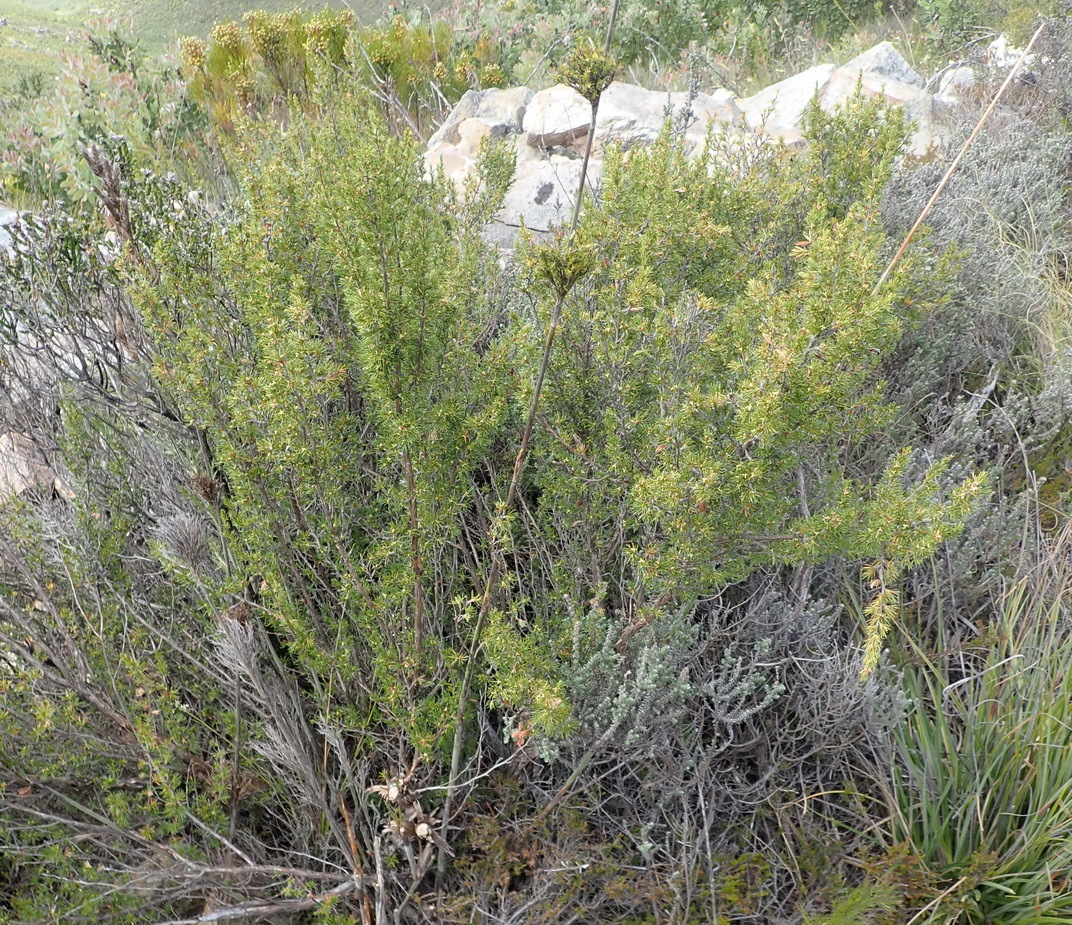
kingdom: Plantae
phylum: Tracheophyta
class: Magnoliopsida
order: Rosales
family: Rosaceae
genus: Cliffortia
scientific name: Cliffortia tuberculata
